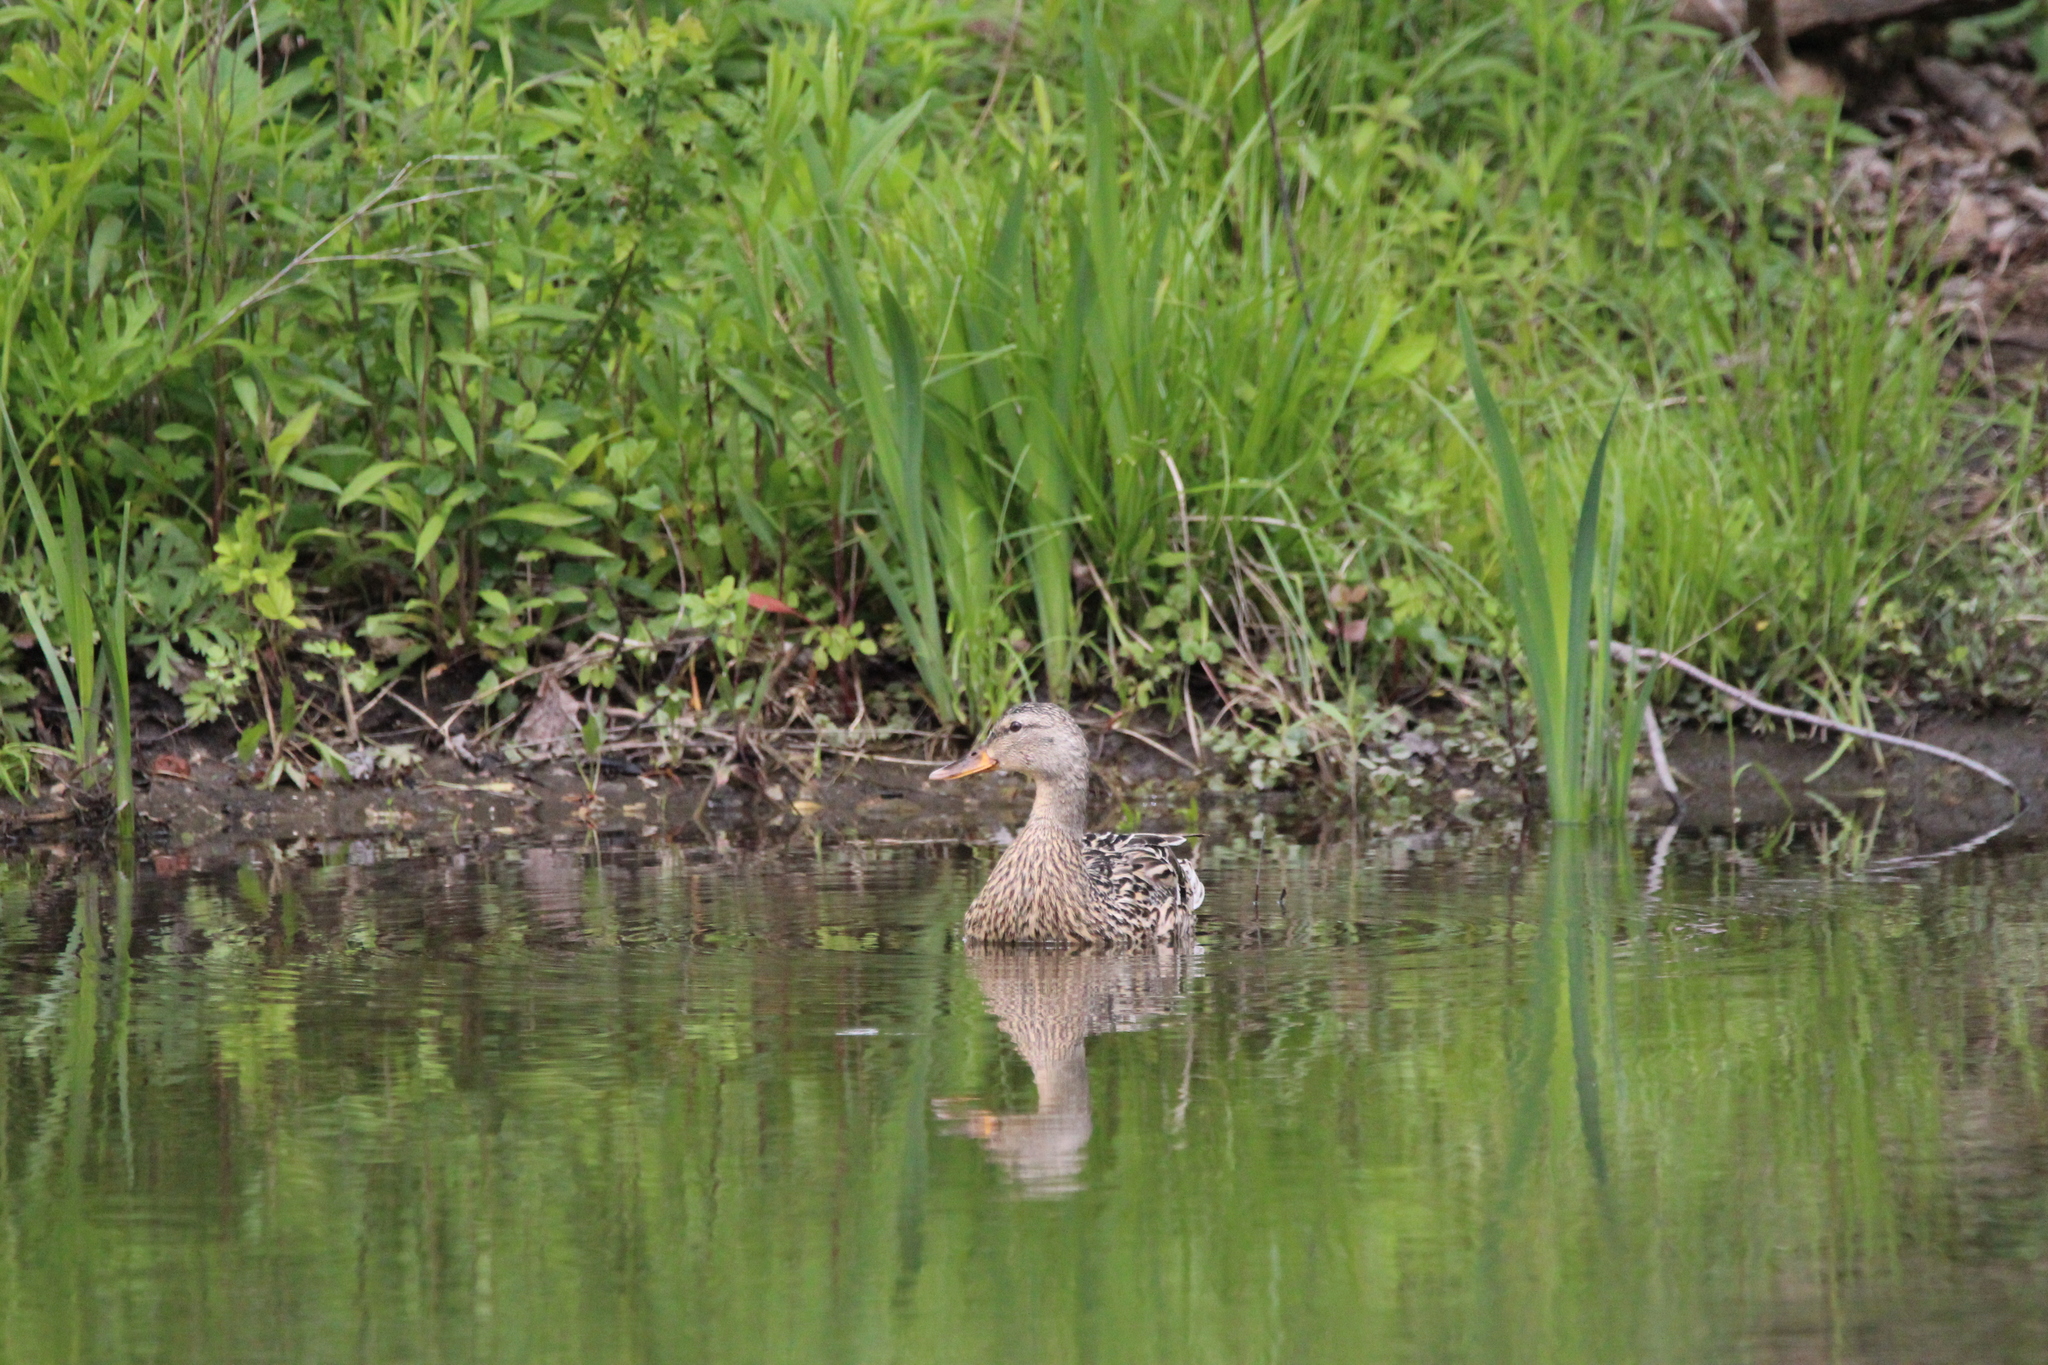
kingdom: Animalia
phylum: Chordata
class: Aves
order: Anseriformes
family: Anatidae
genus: Anas
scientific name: Anas platyrhynchos
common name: Mallard
